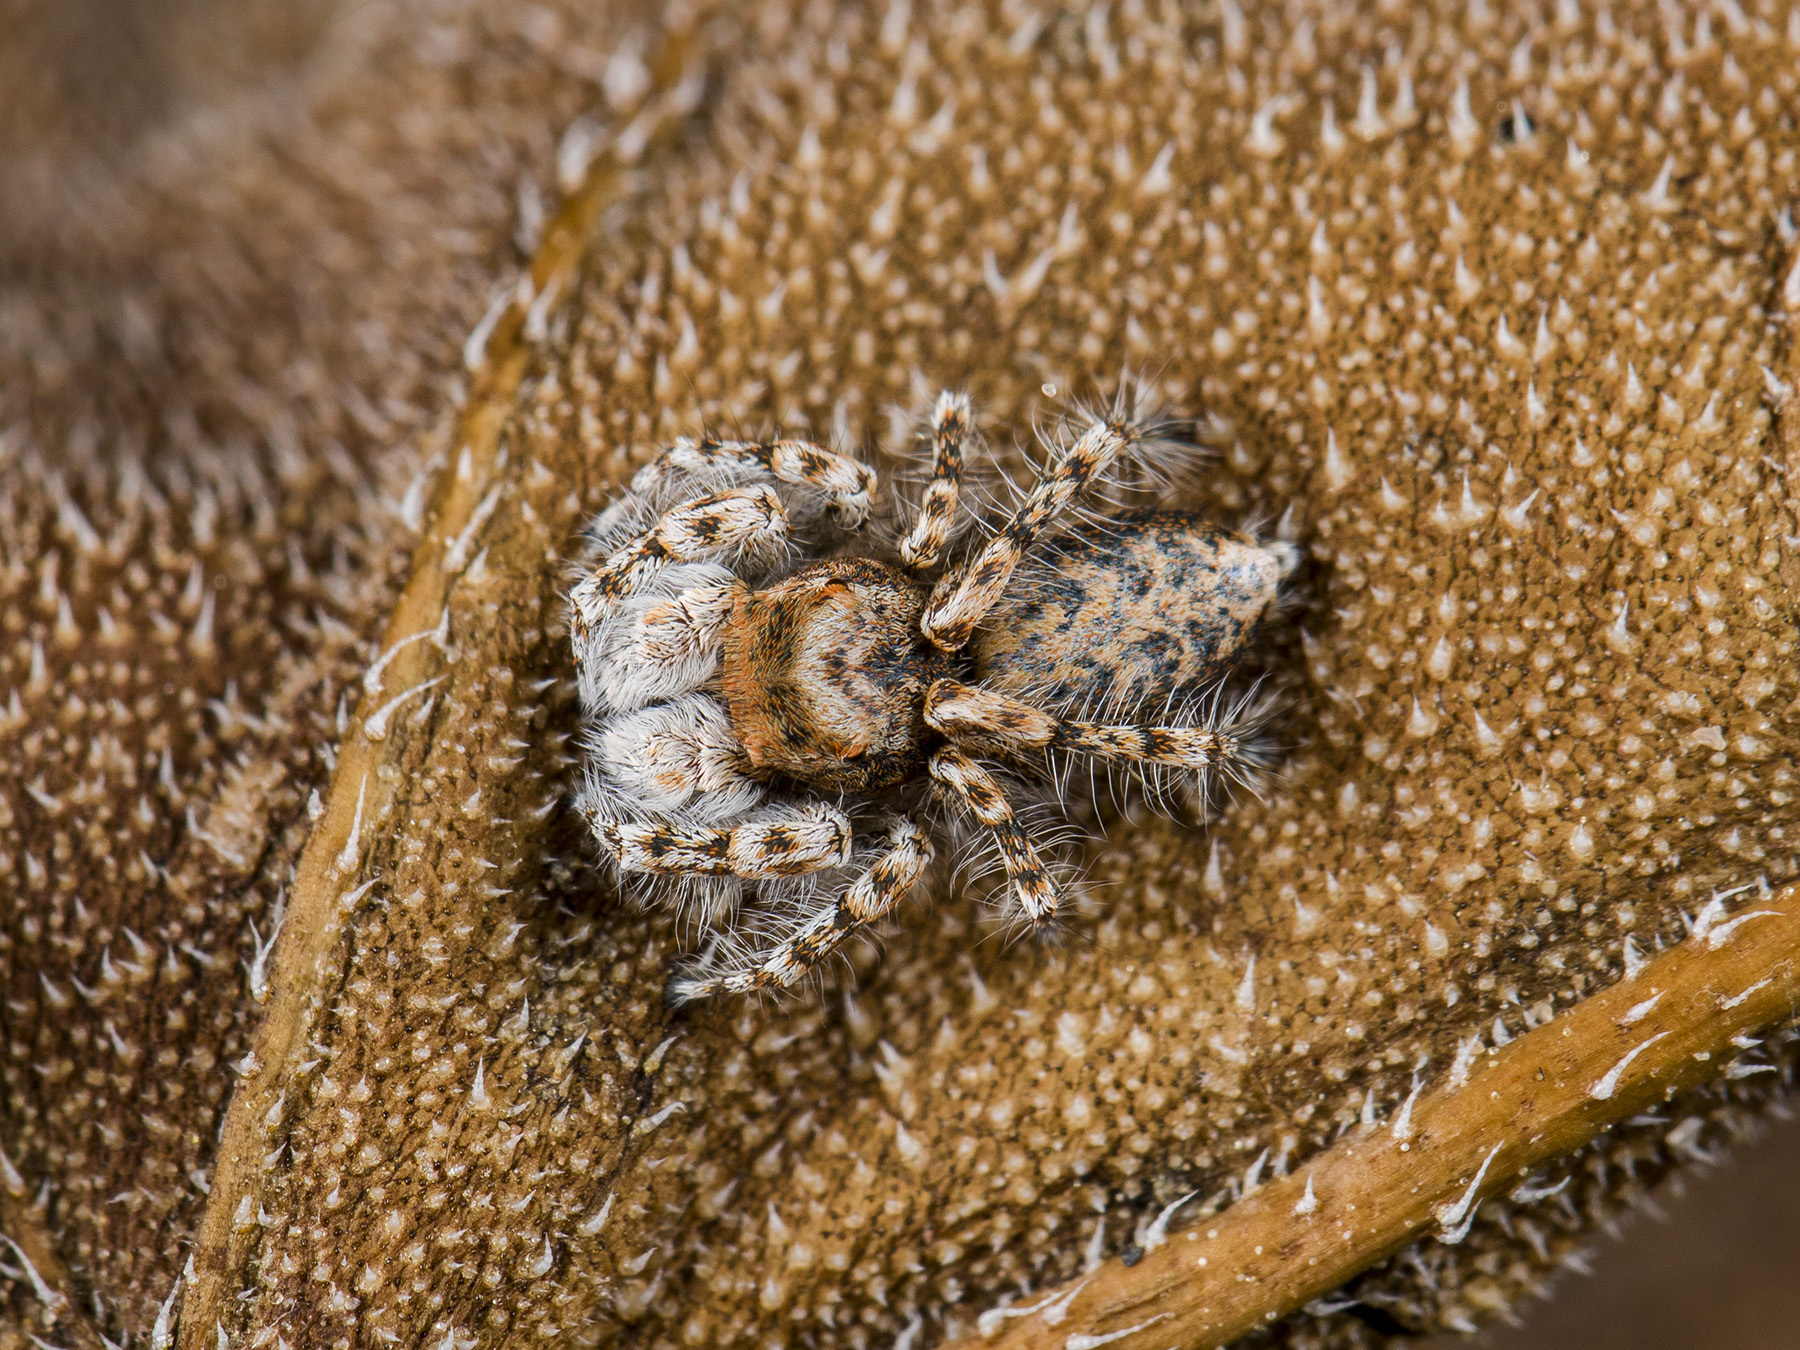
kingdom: Animalia
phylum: Arthropoda
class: Arachnida
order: Araneae
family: Salticidae
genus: Yllenus
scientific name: Yllenus uiguricus
